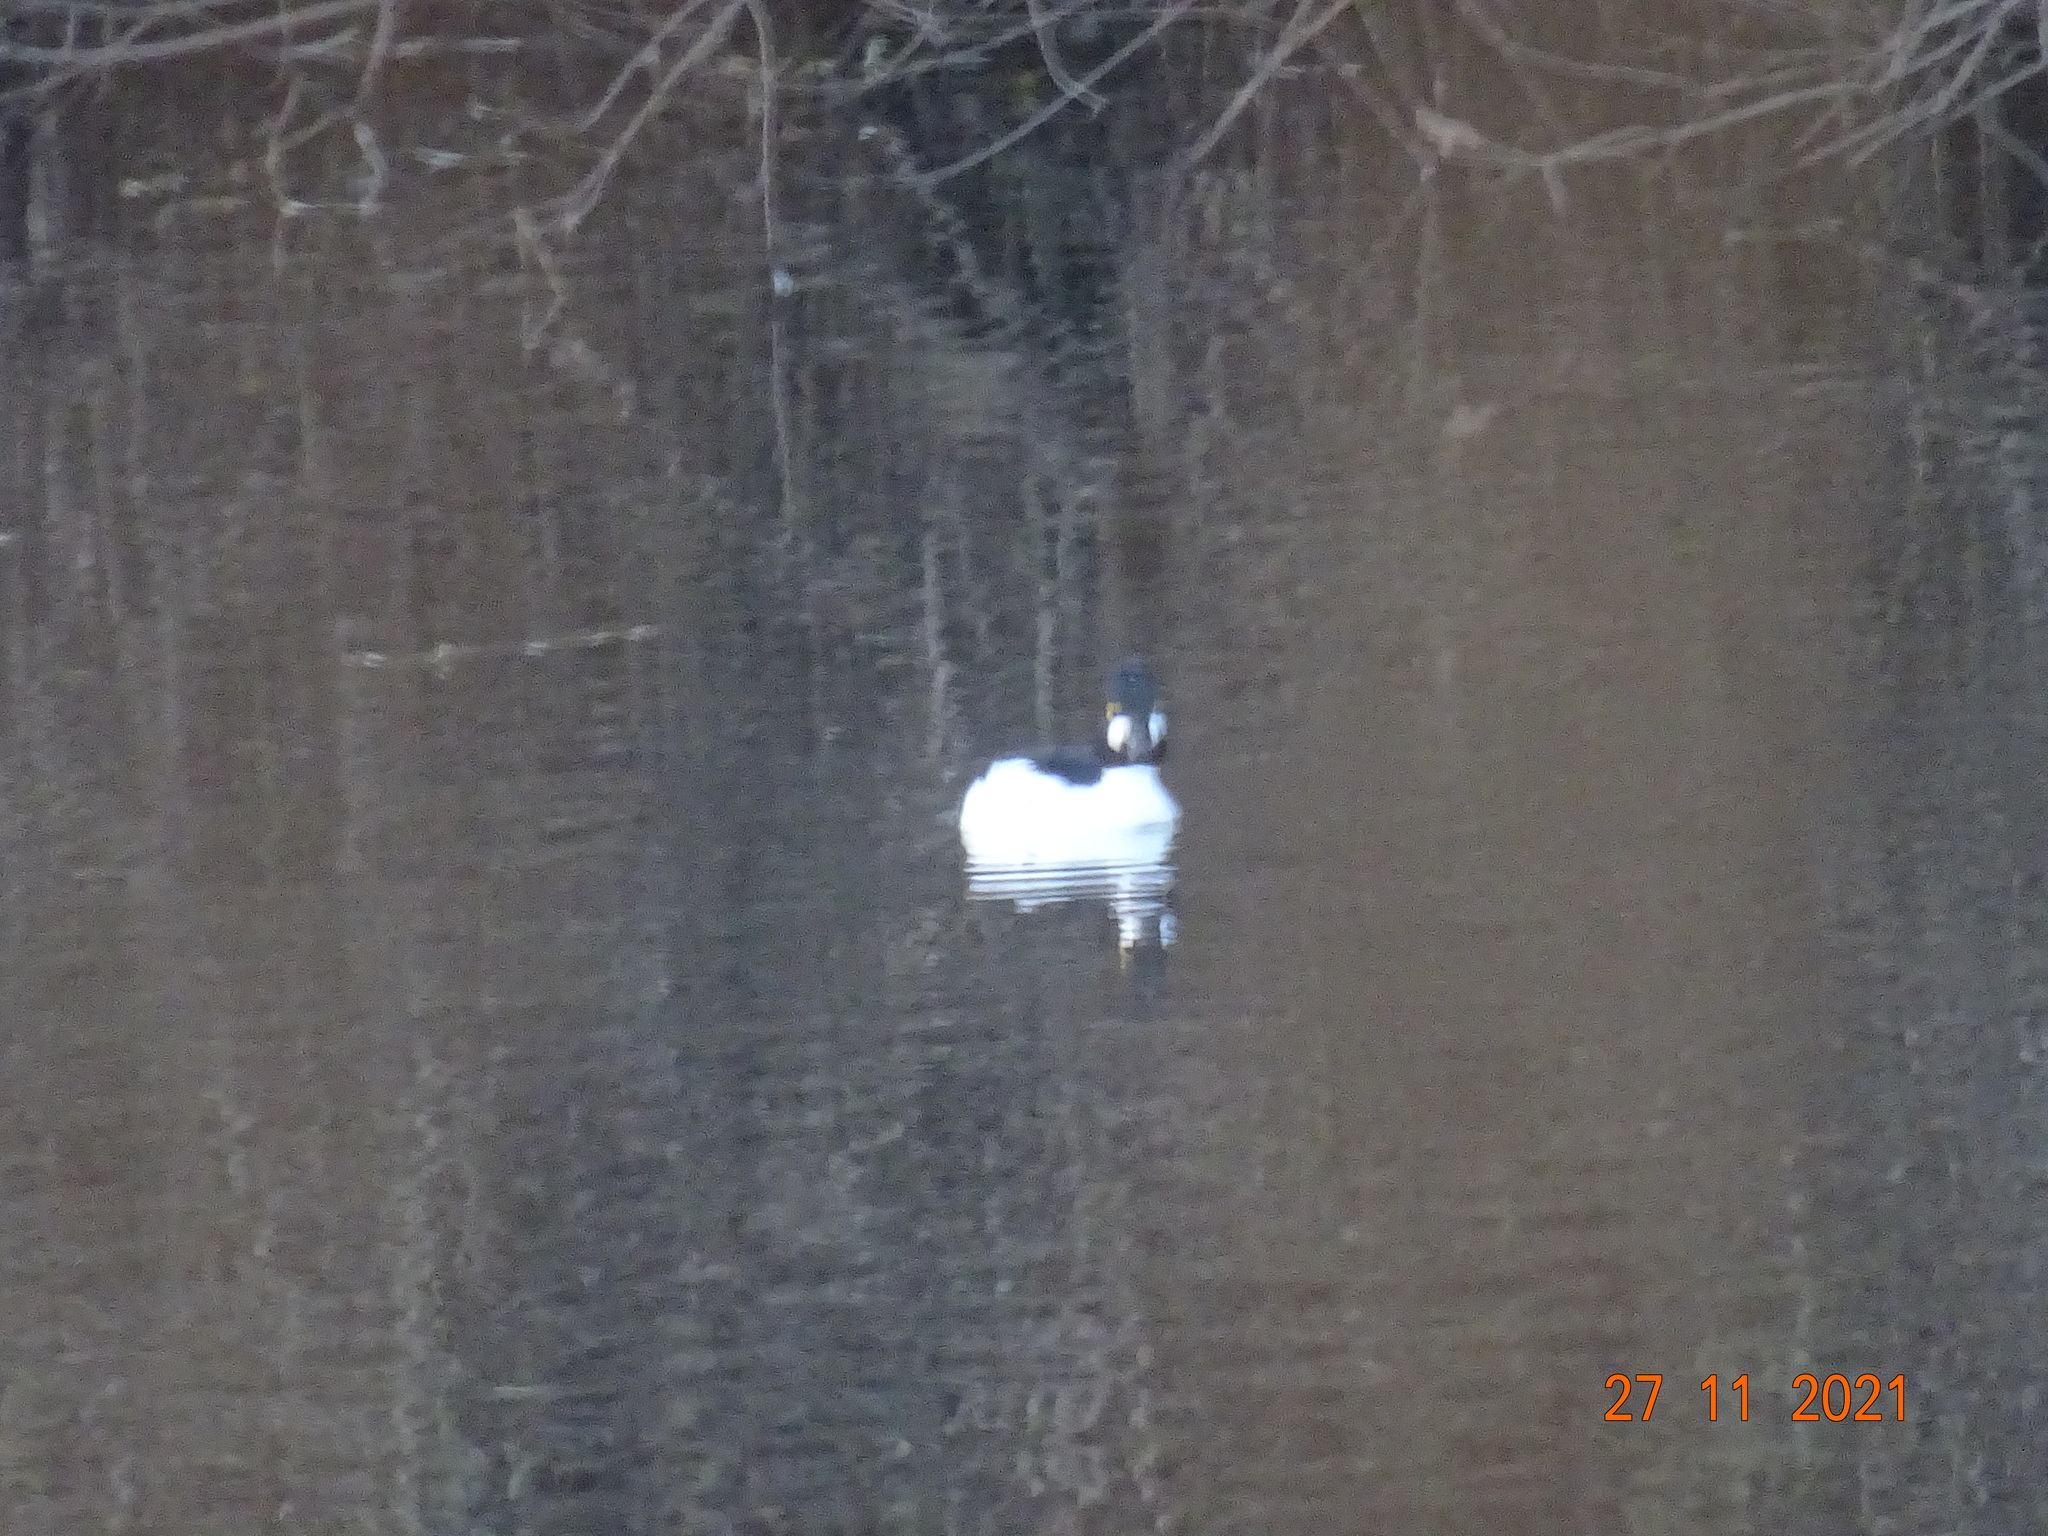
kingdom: Animalia
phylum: Chordata
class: Aves
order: Anseriformes
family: Anatidae
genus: Bucephala
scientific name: Bucephala clangula
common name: Common goldeneye
